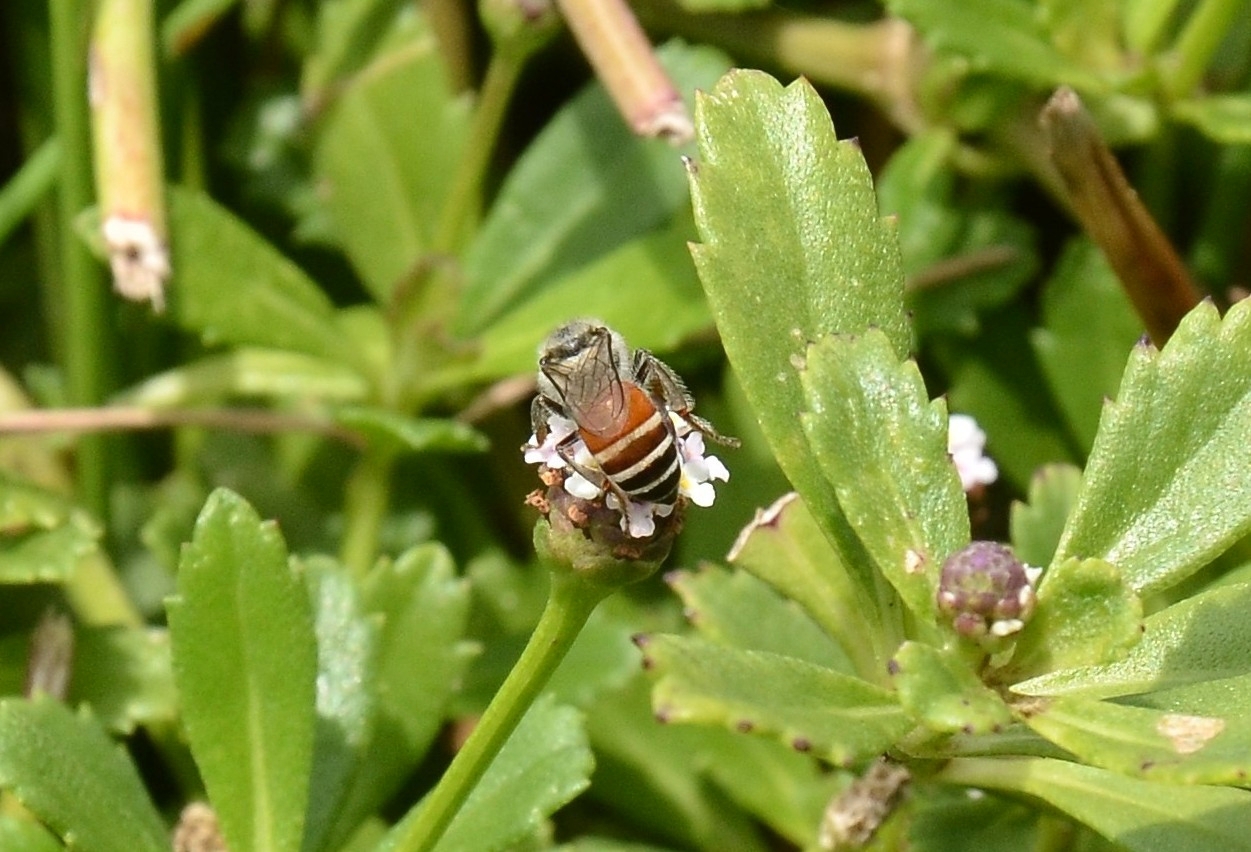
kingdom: Animalia
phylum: Arthropoda
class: Insecta
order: Hymenoptera
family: Apidae
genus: Apis
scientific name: Apis florea
